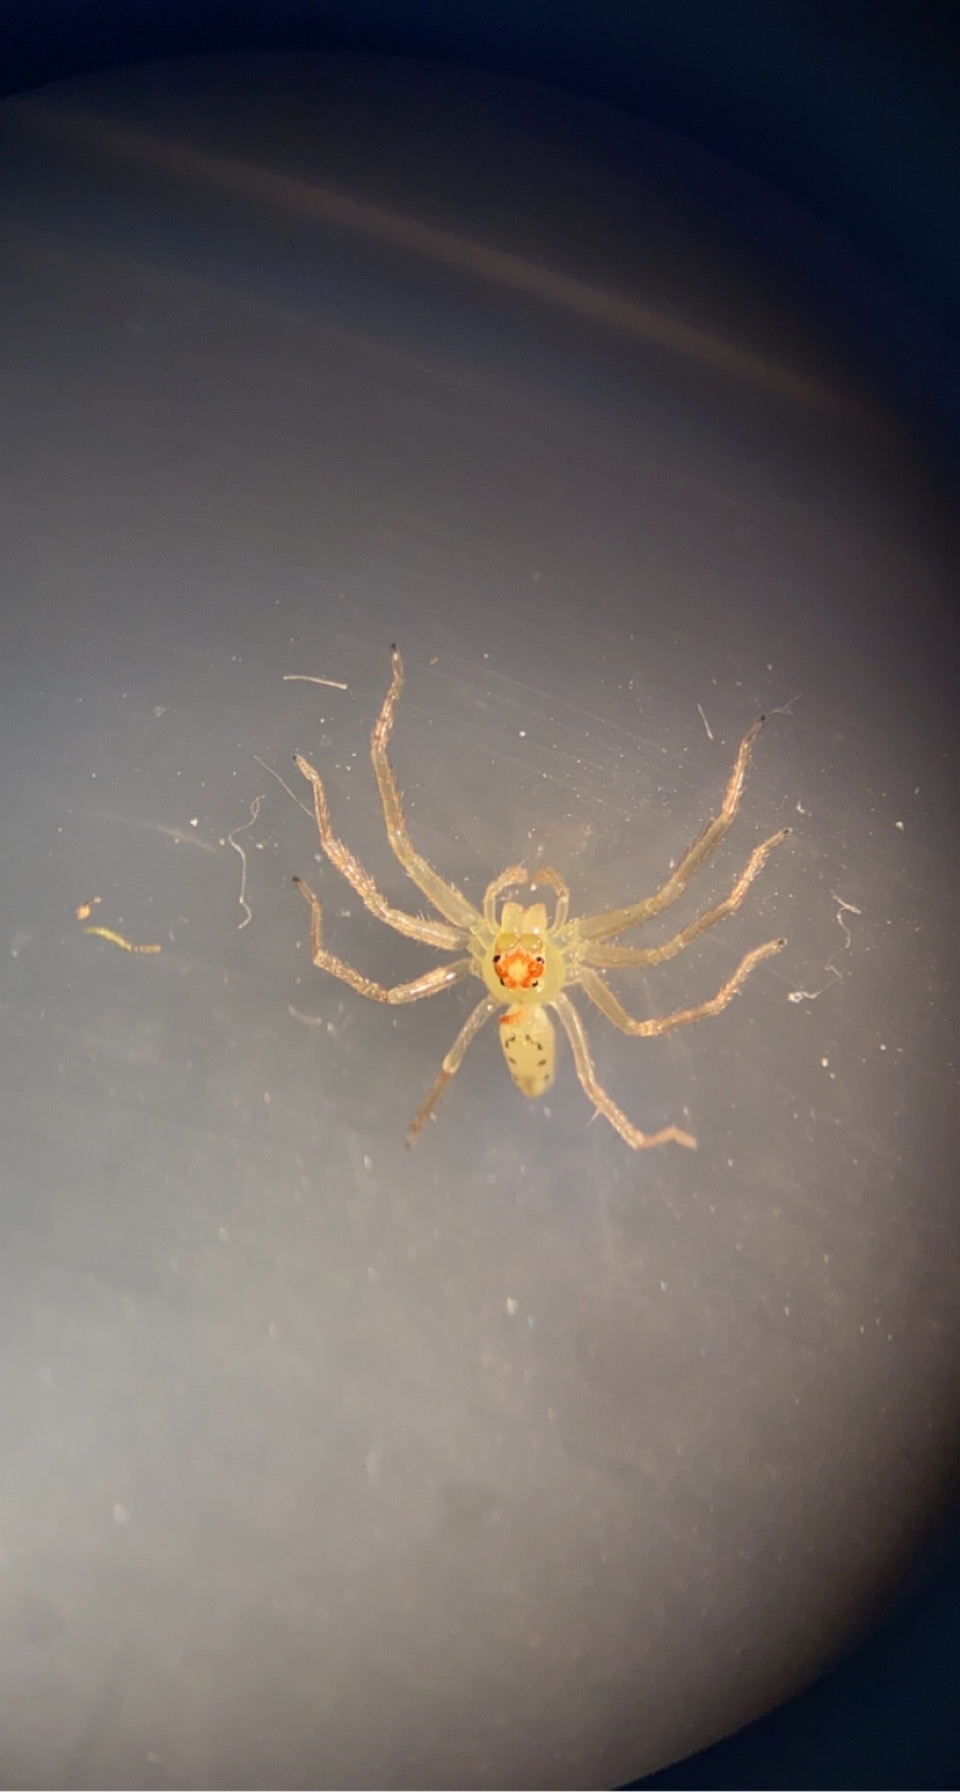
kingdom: Animalia
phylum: Arthropoda
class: Arachnida
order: Araneae
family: Salticidae
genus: Lyssomanes
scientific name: Lyssomanes viridis
